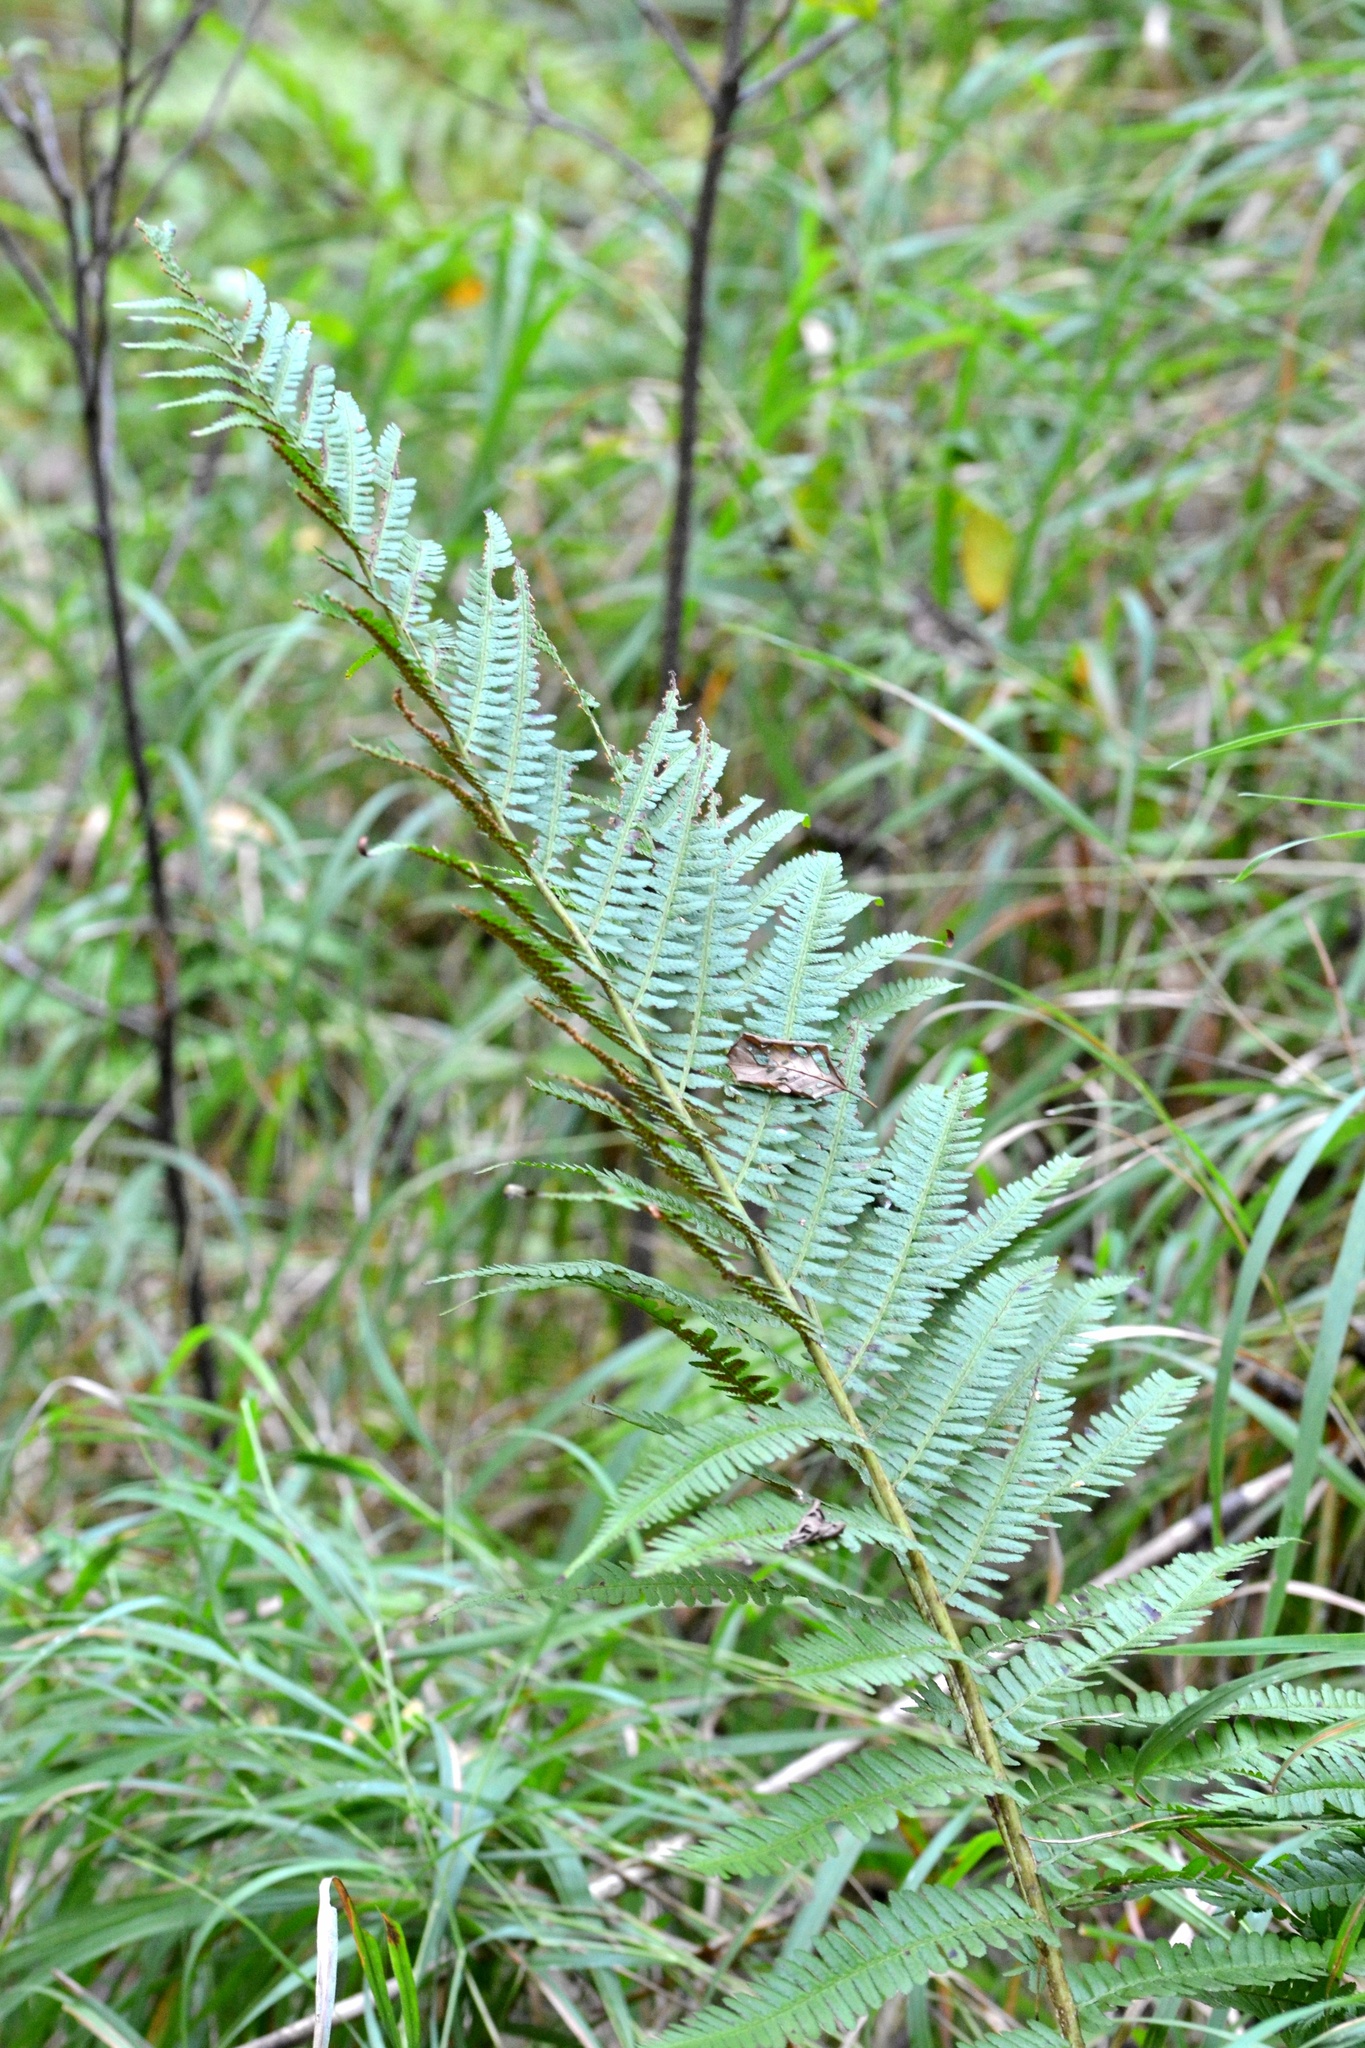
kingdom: Plantae
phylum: Tracheophyta
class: Polypodiopsida
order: Polypodiales
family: Dryopteridaceae
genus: Dryopteris
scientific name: Dryopteris filix-mas
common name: Male fern
